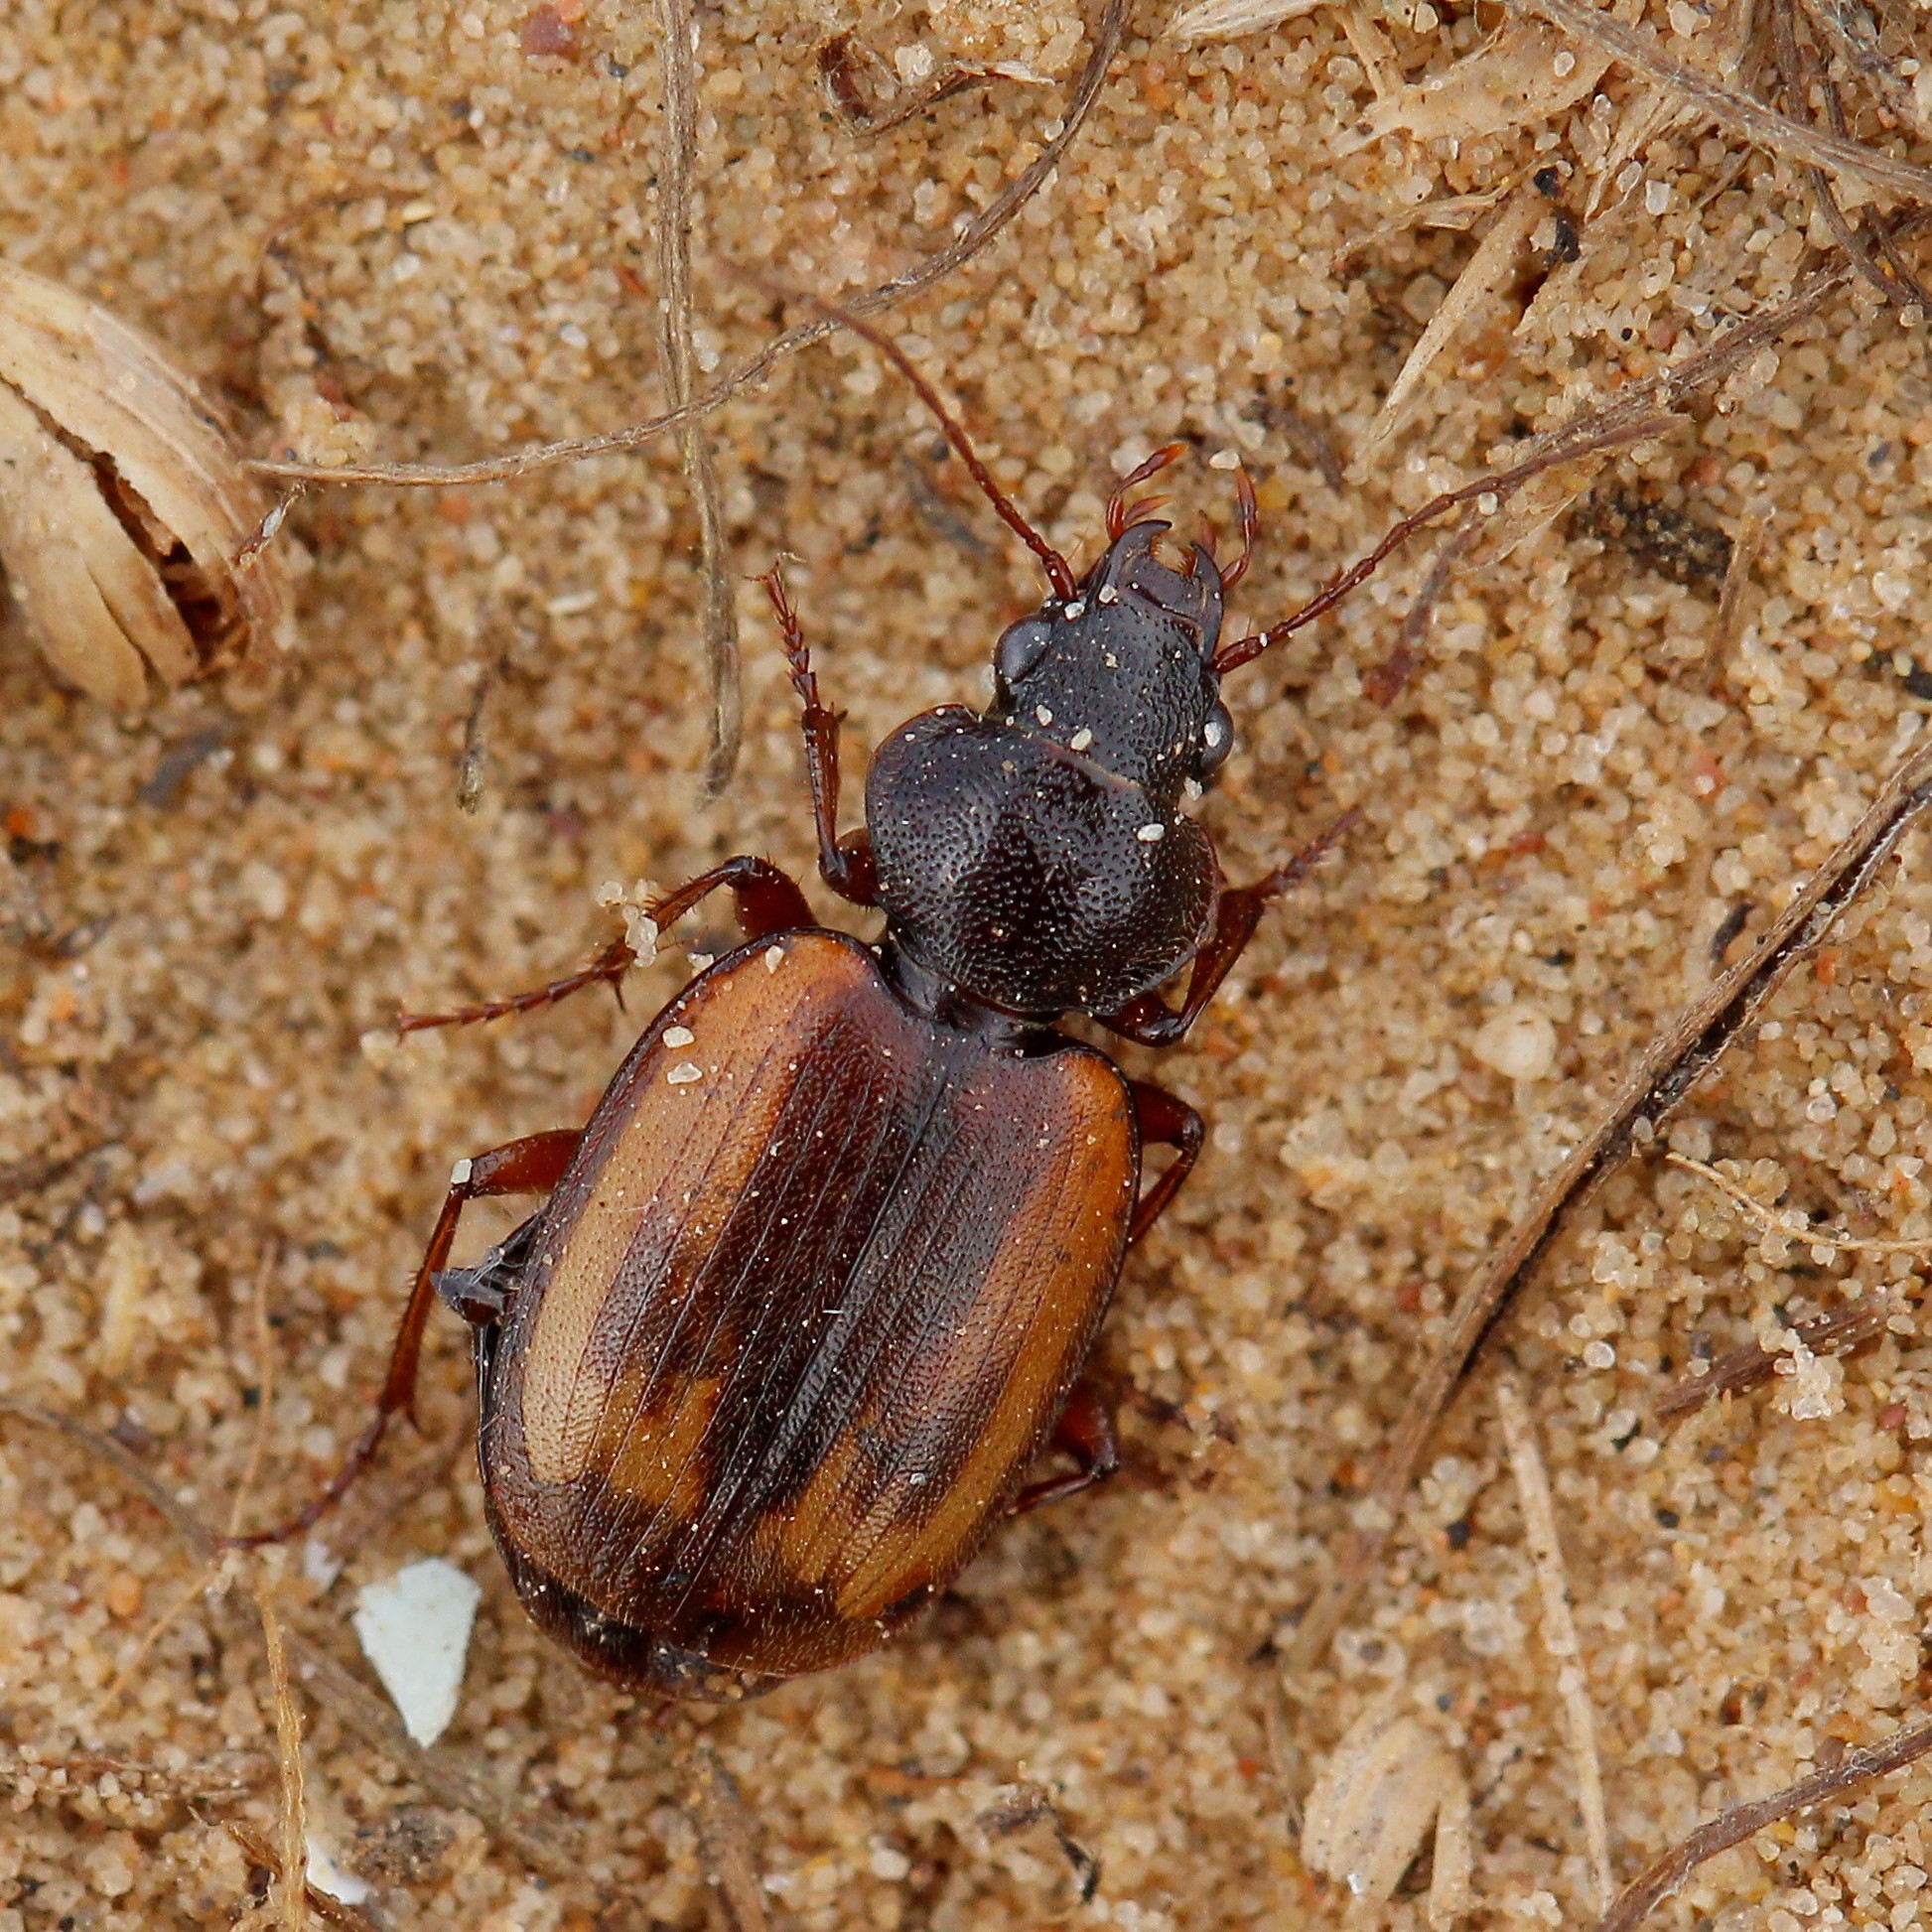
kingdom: Animalia
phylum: Arthropoda
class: Insecta
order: Coleoptera
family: Carabidae
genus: Corsyra
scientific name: Corsyra fusula
